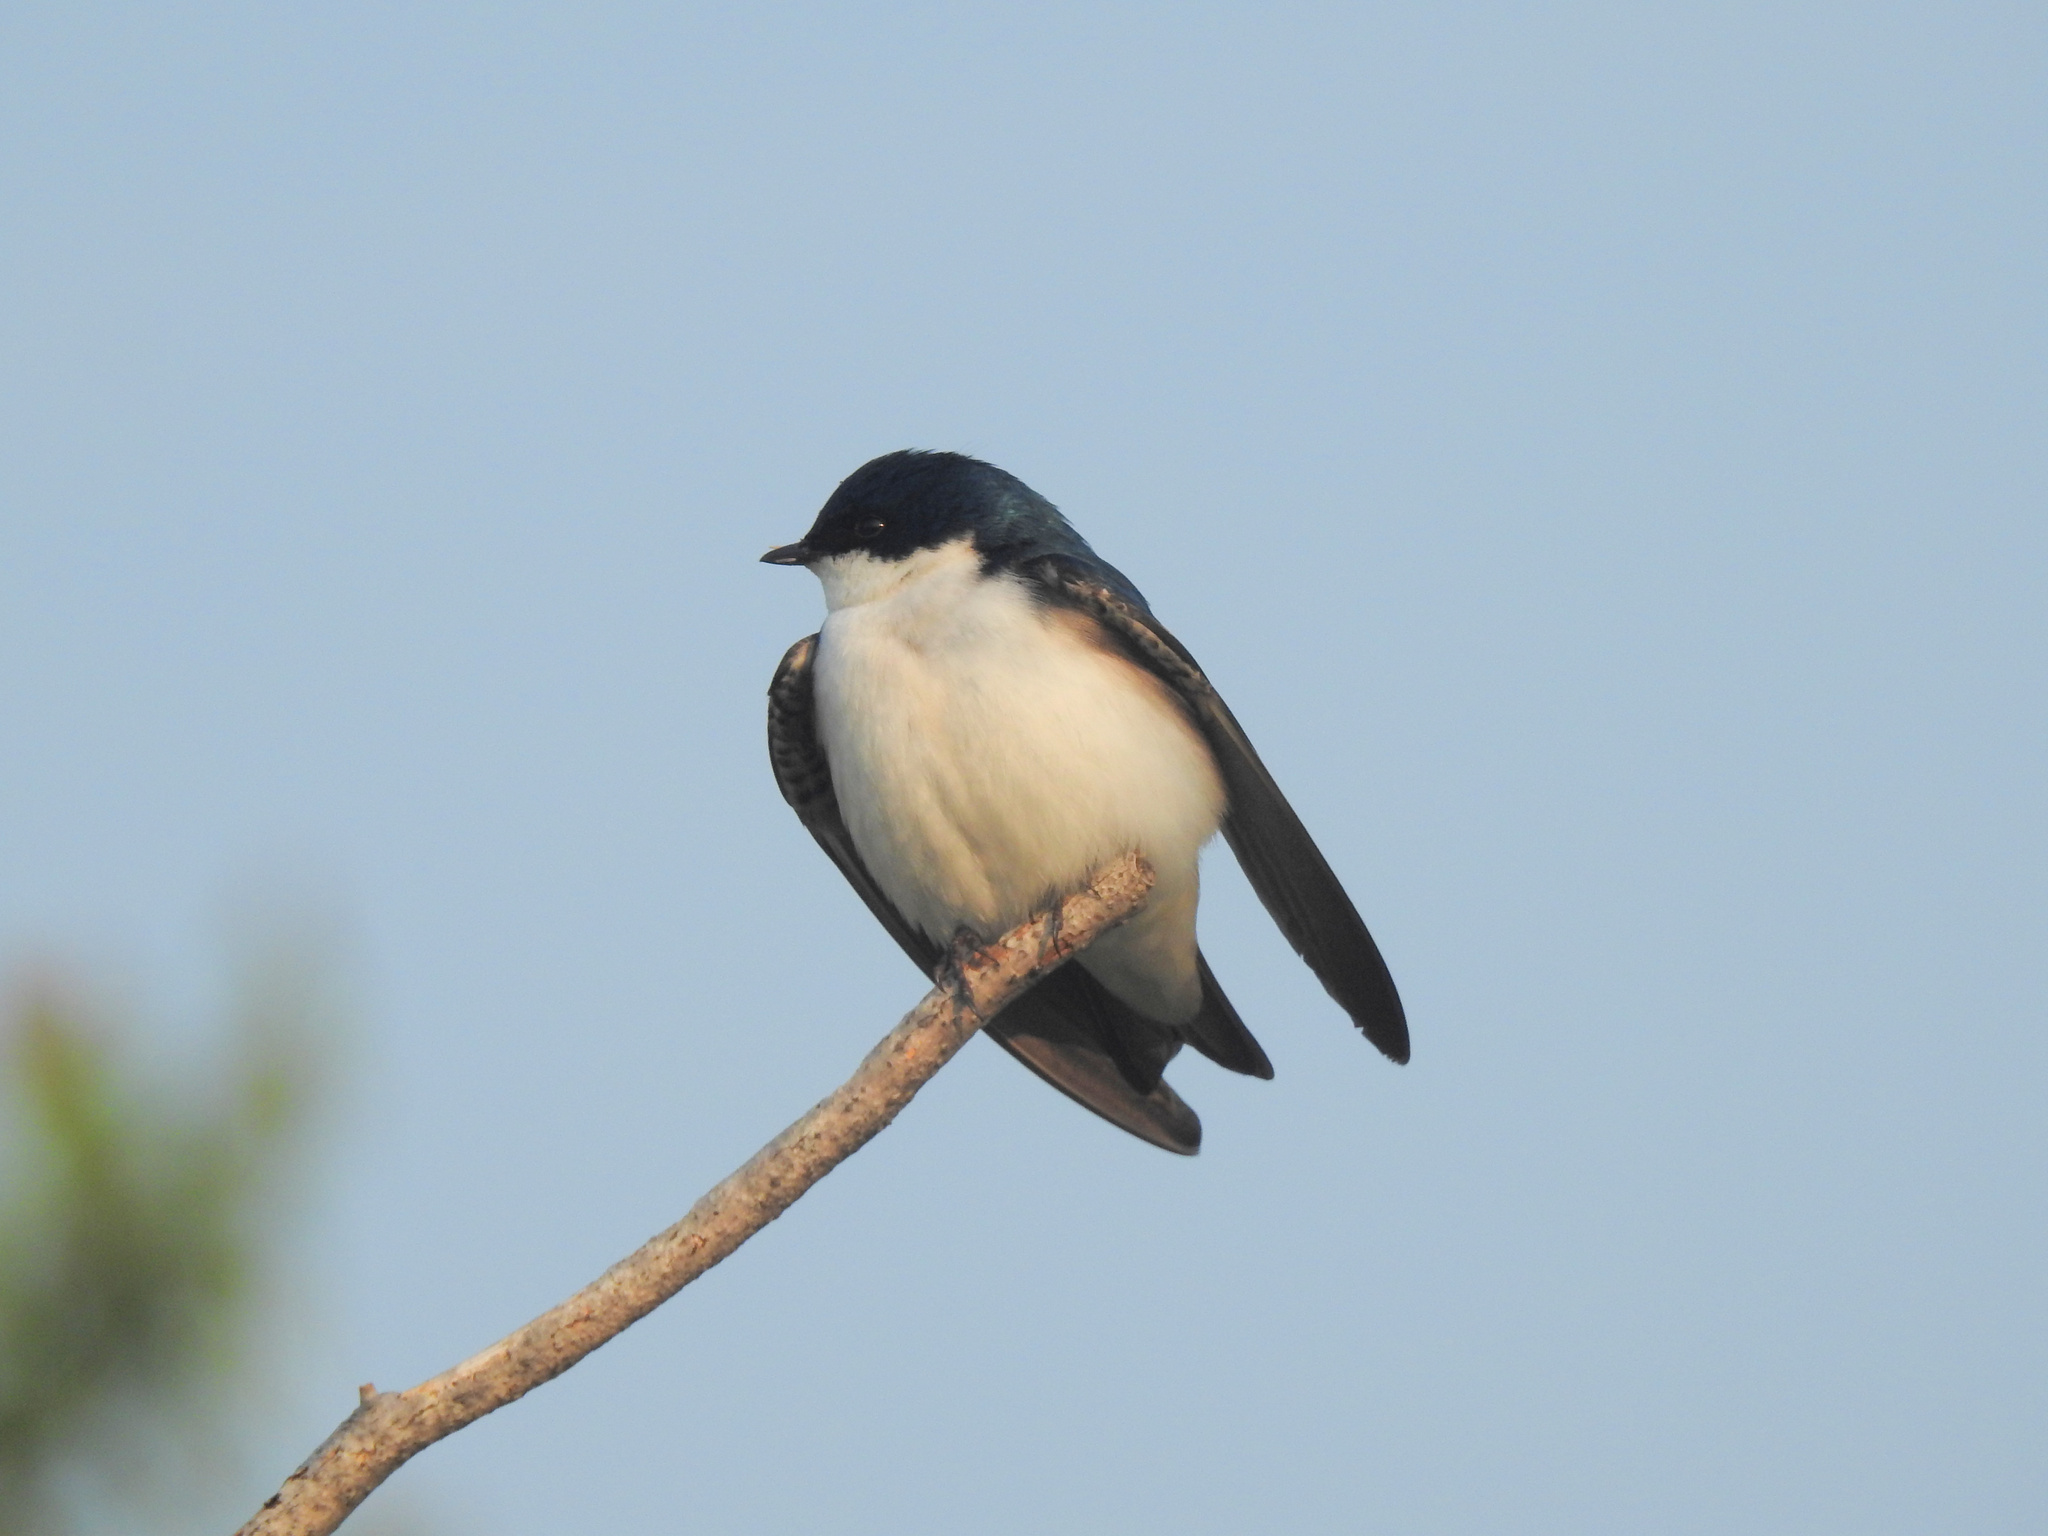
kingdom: Animalia
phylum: Chordata
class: Aves
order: Passeriformes
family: Hirundinidae
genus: Tachycineta
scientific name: Tachycineta bicolor
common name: Tree swallow
